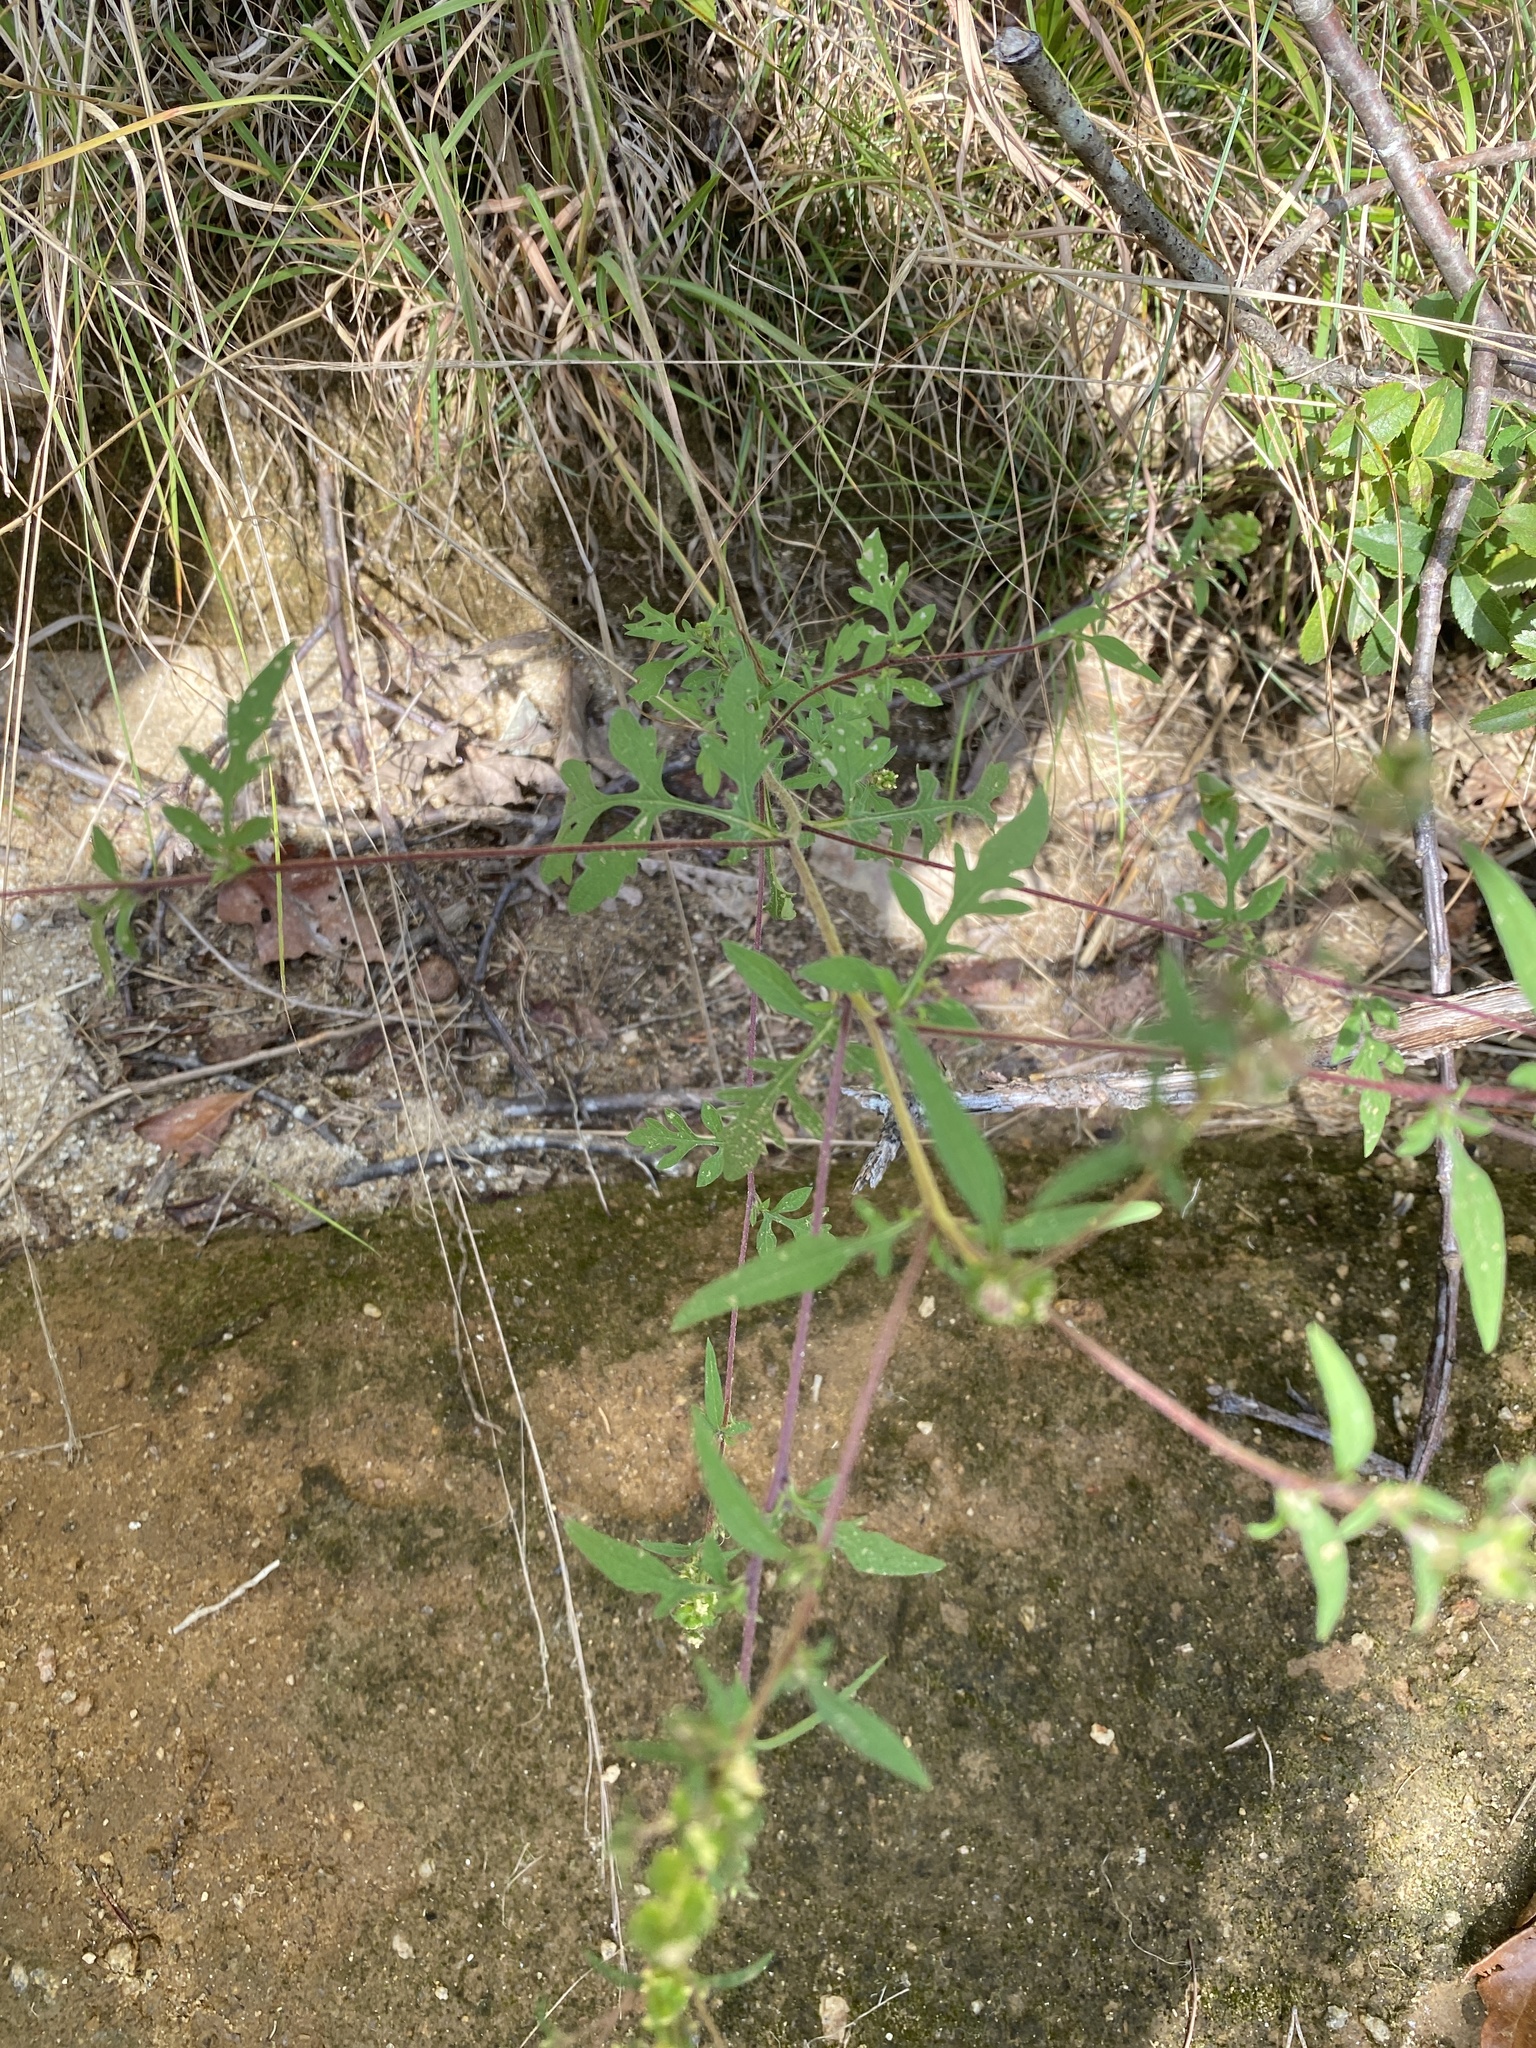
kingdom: Plantae
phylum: Tracheophyta
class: Magnoliopsida
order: Asterales
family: Asteraceae
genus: Ambrosia
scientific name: Ambrosia artemisiifolia
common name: Annual ragweed
